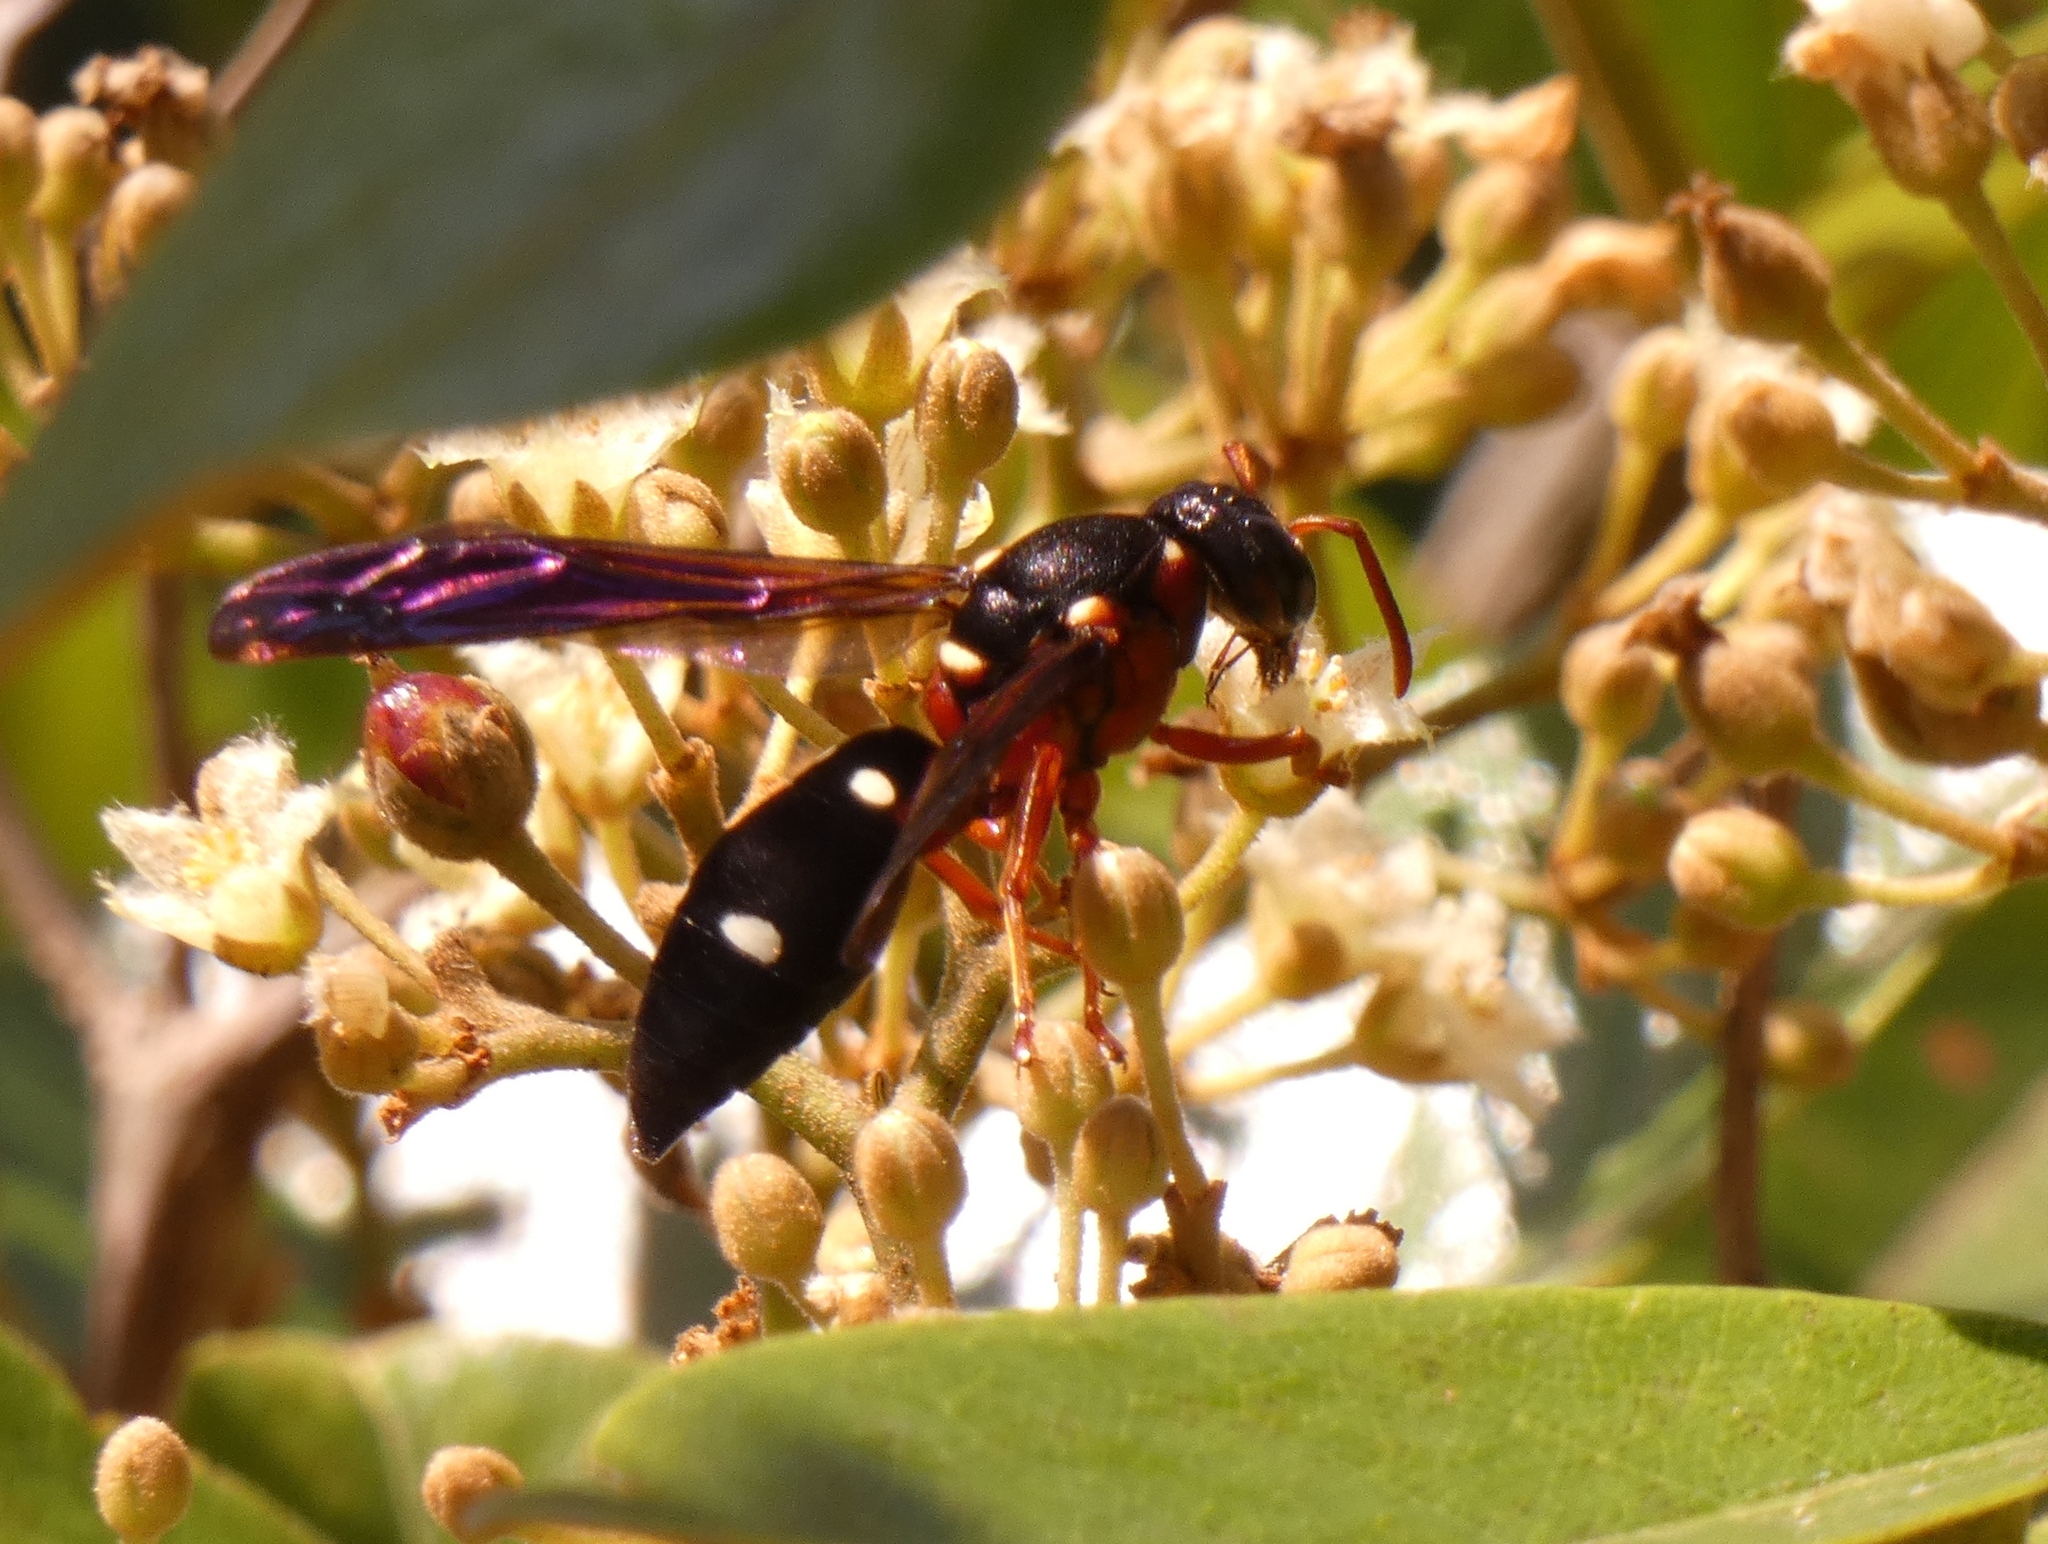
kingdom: Animalia
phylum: Arthropoda
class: Insecta
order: Hymenoptera
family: Eumenidae
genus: Anterhynchium
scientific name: Anterhynchium aestuans
